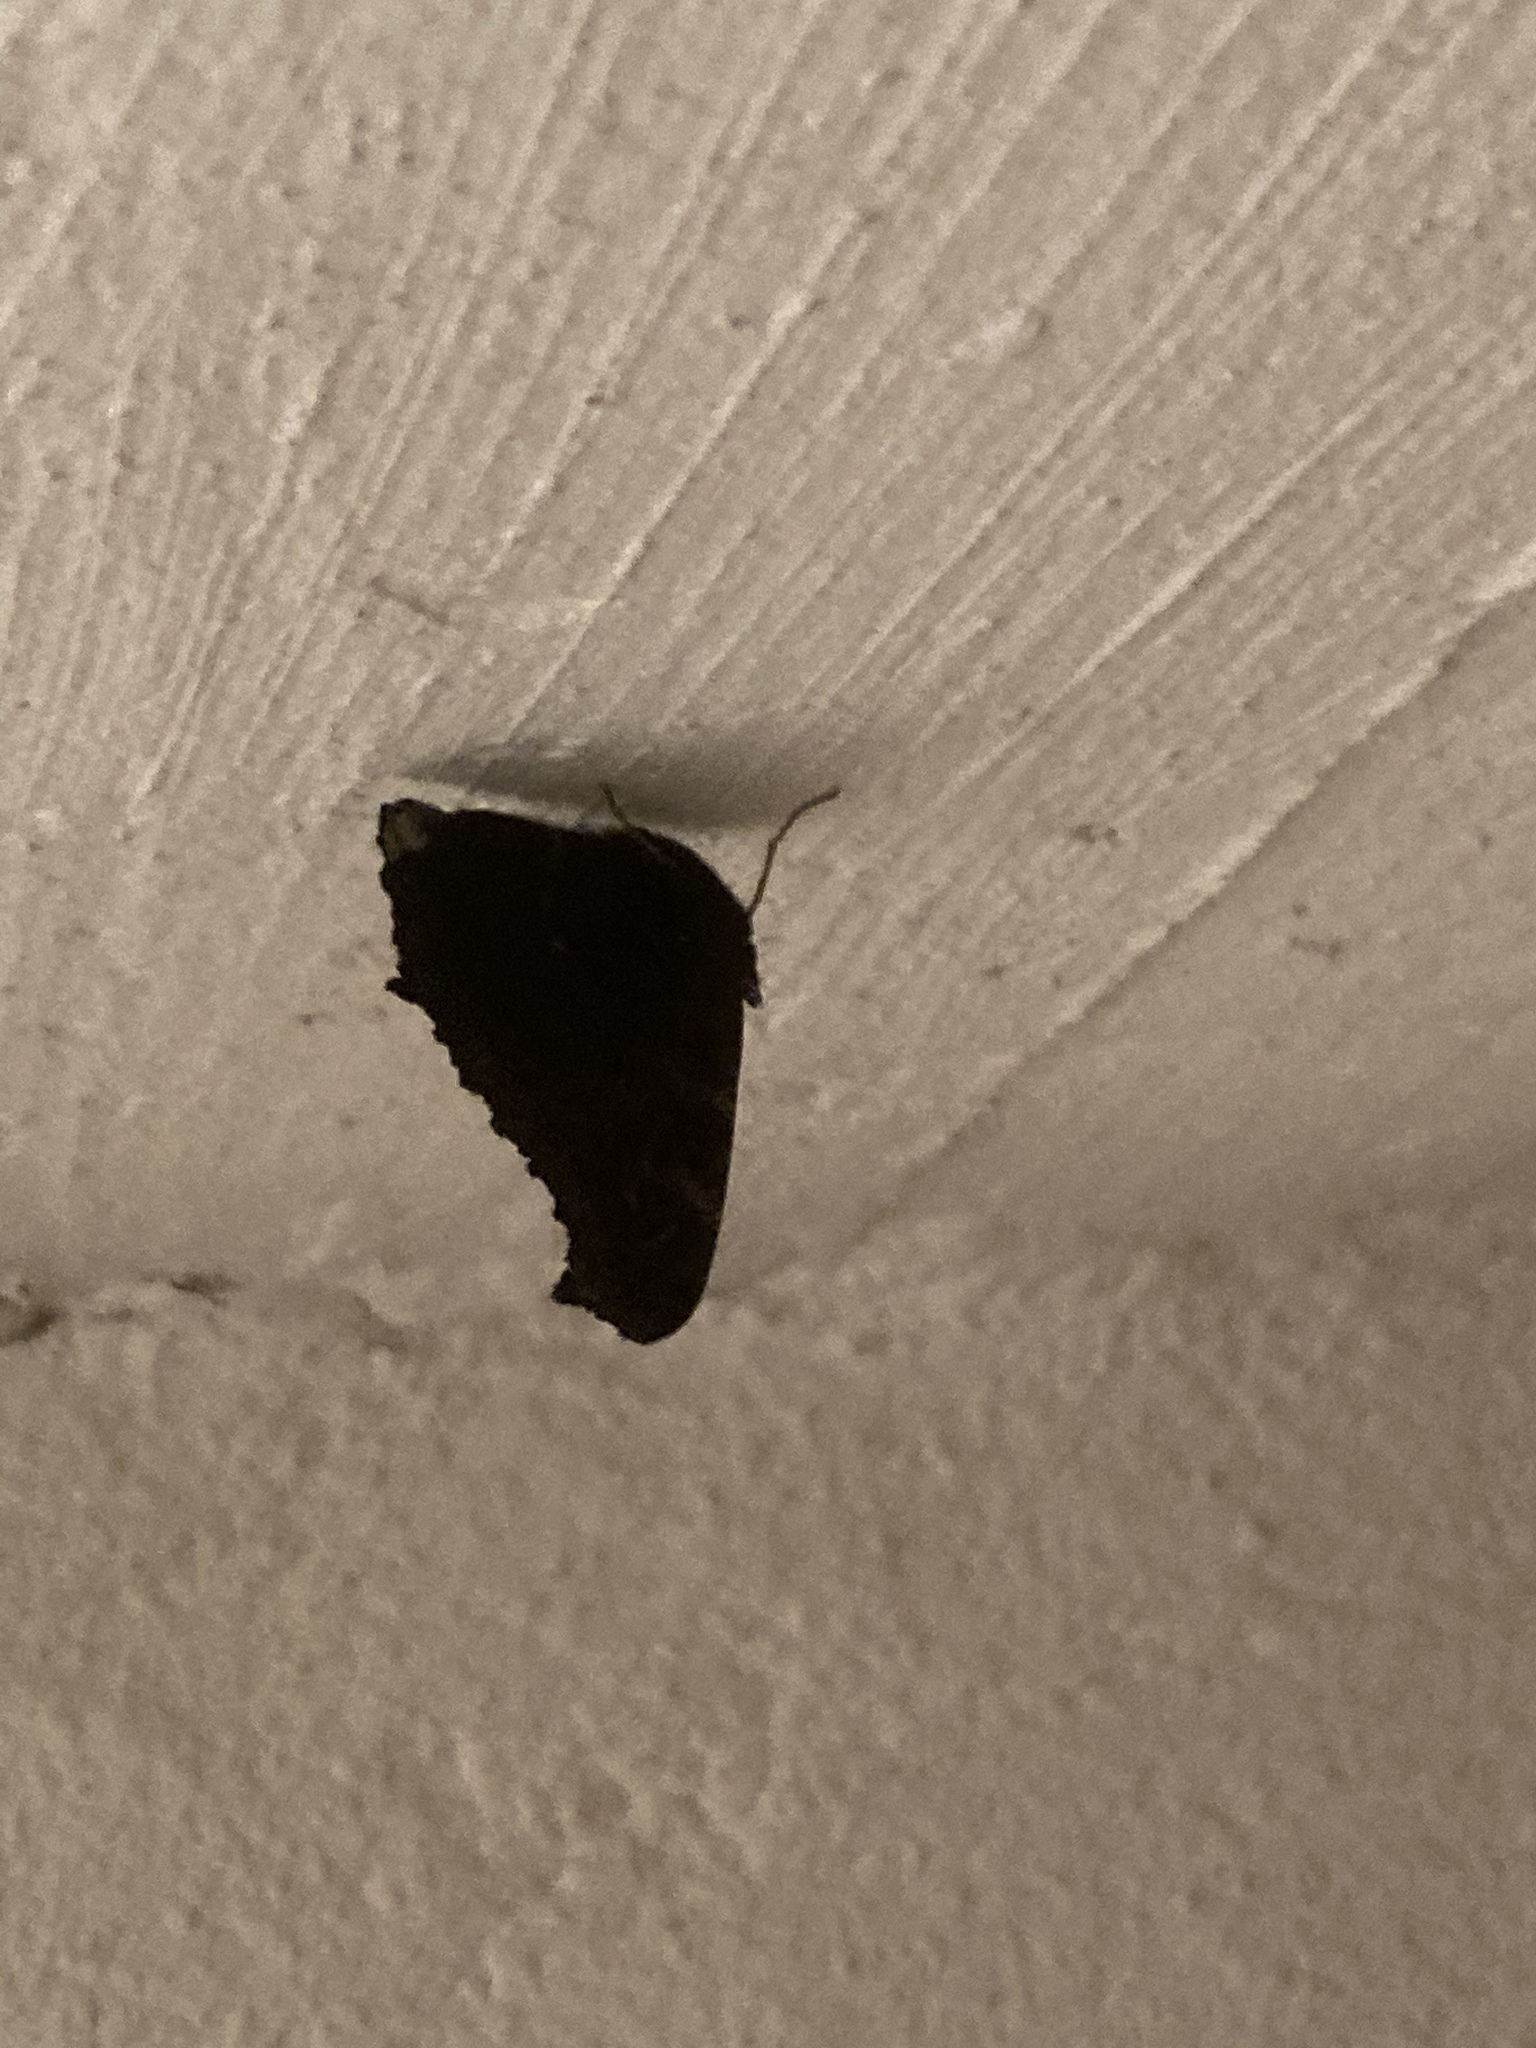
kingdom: Animalia
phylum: Arthropoda
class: Insecta
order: Lepidoptera
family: Nymphalidae
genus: Aglais
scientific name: Aglais io
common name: Peacock
